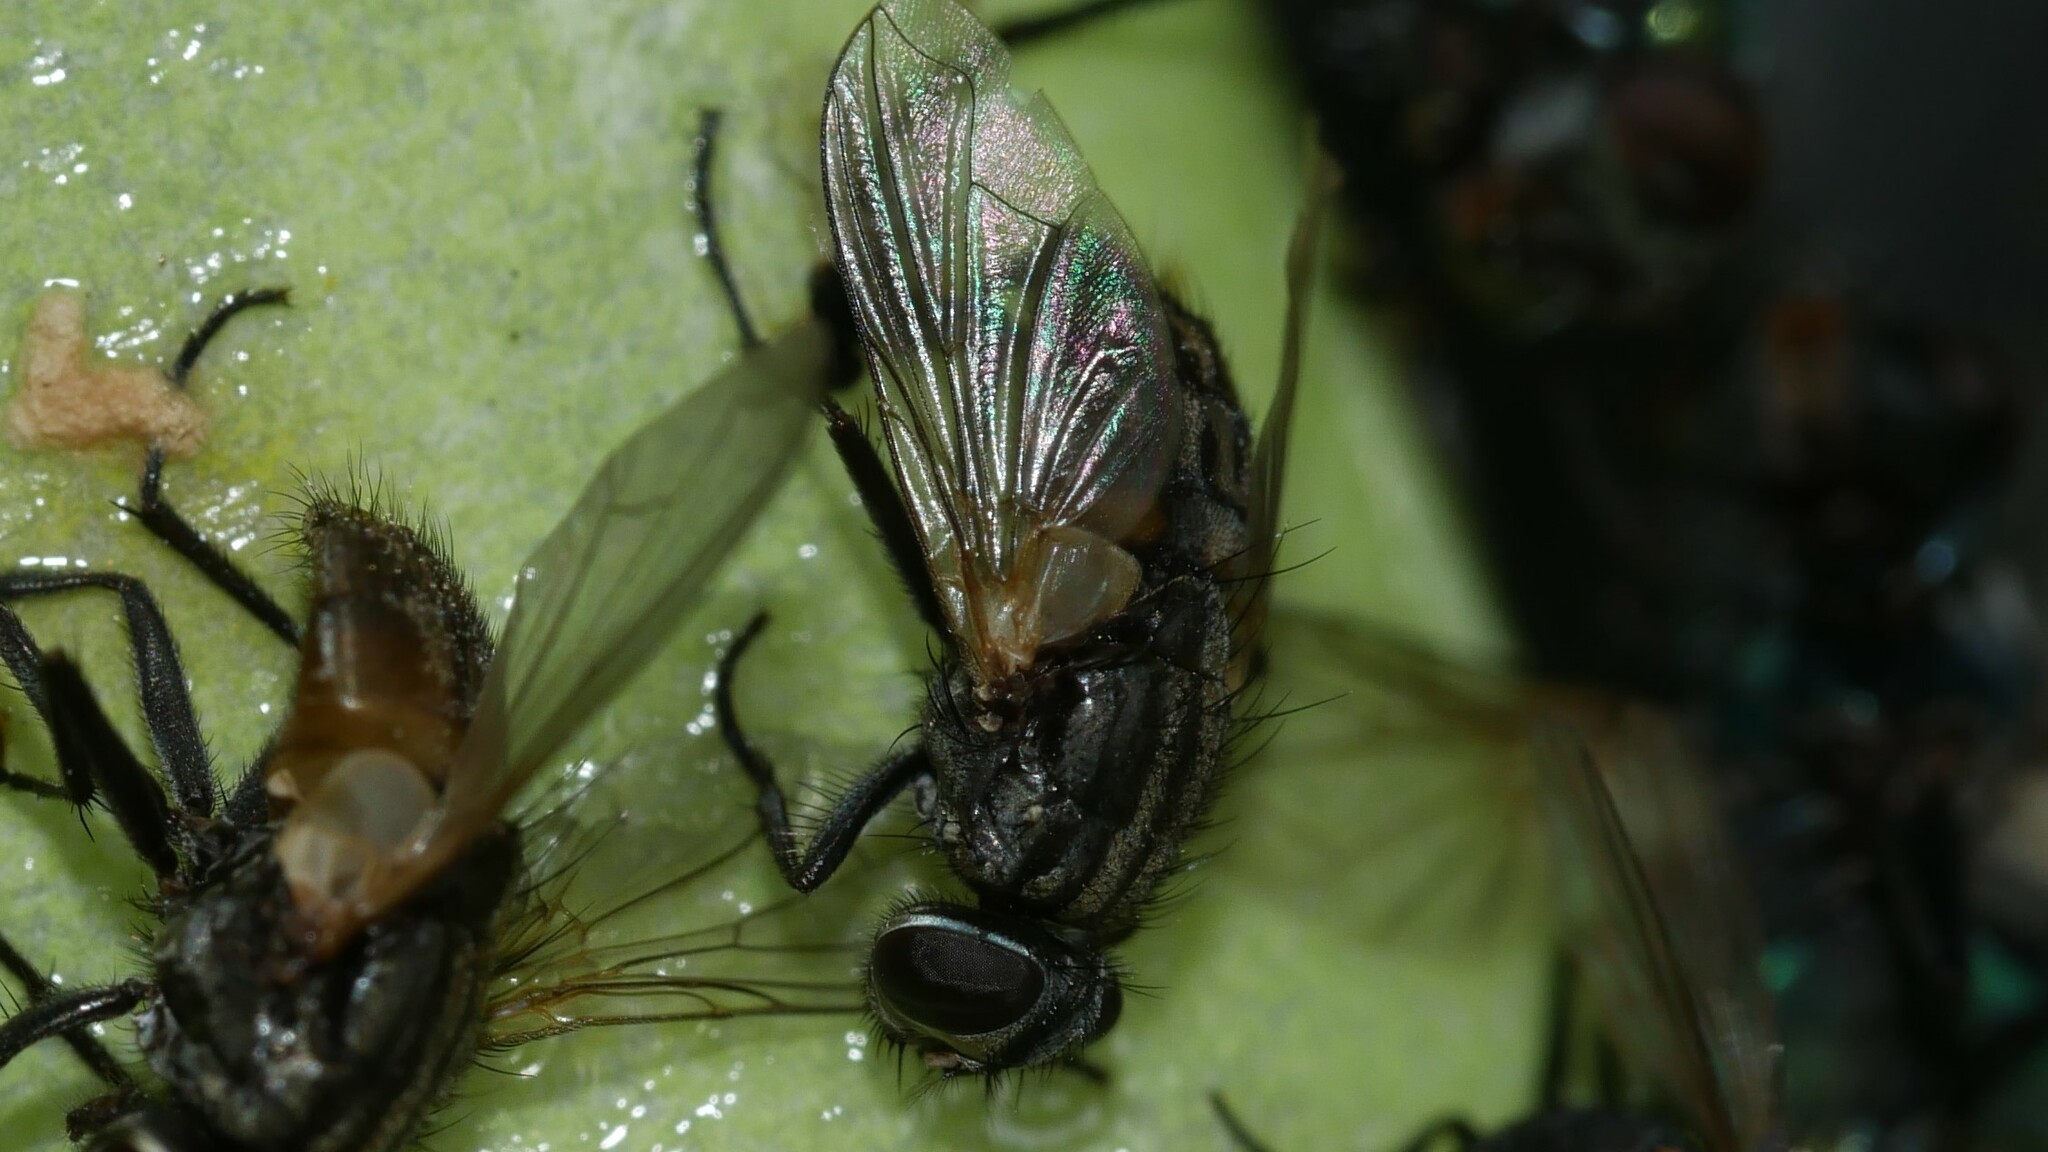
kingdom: Animalia
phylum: Arthropoda
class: Insecta
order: Diptera
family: Muscidae
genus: Musca
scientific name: Musca domestica
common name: House fly
